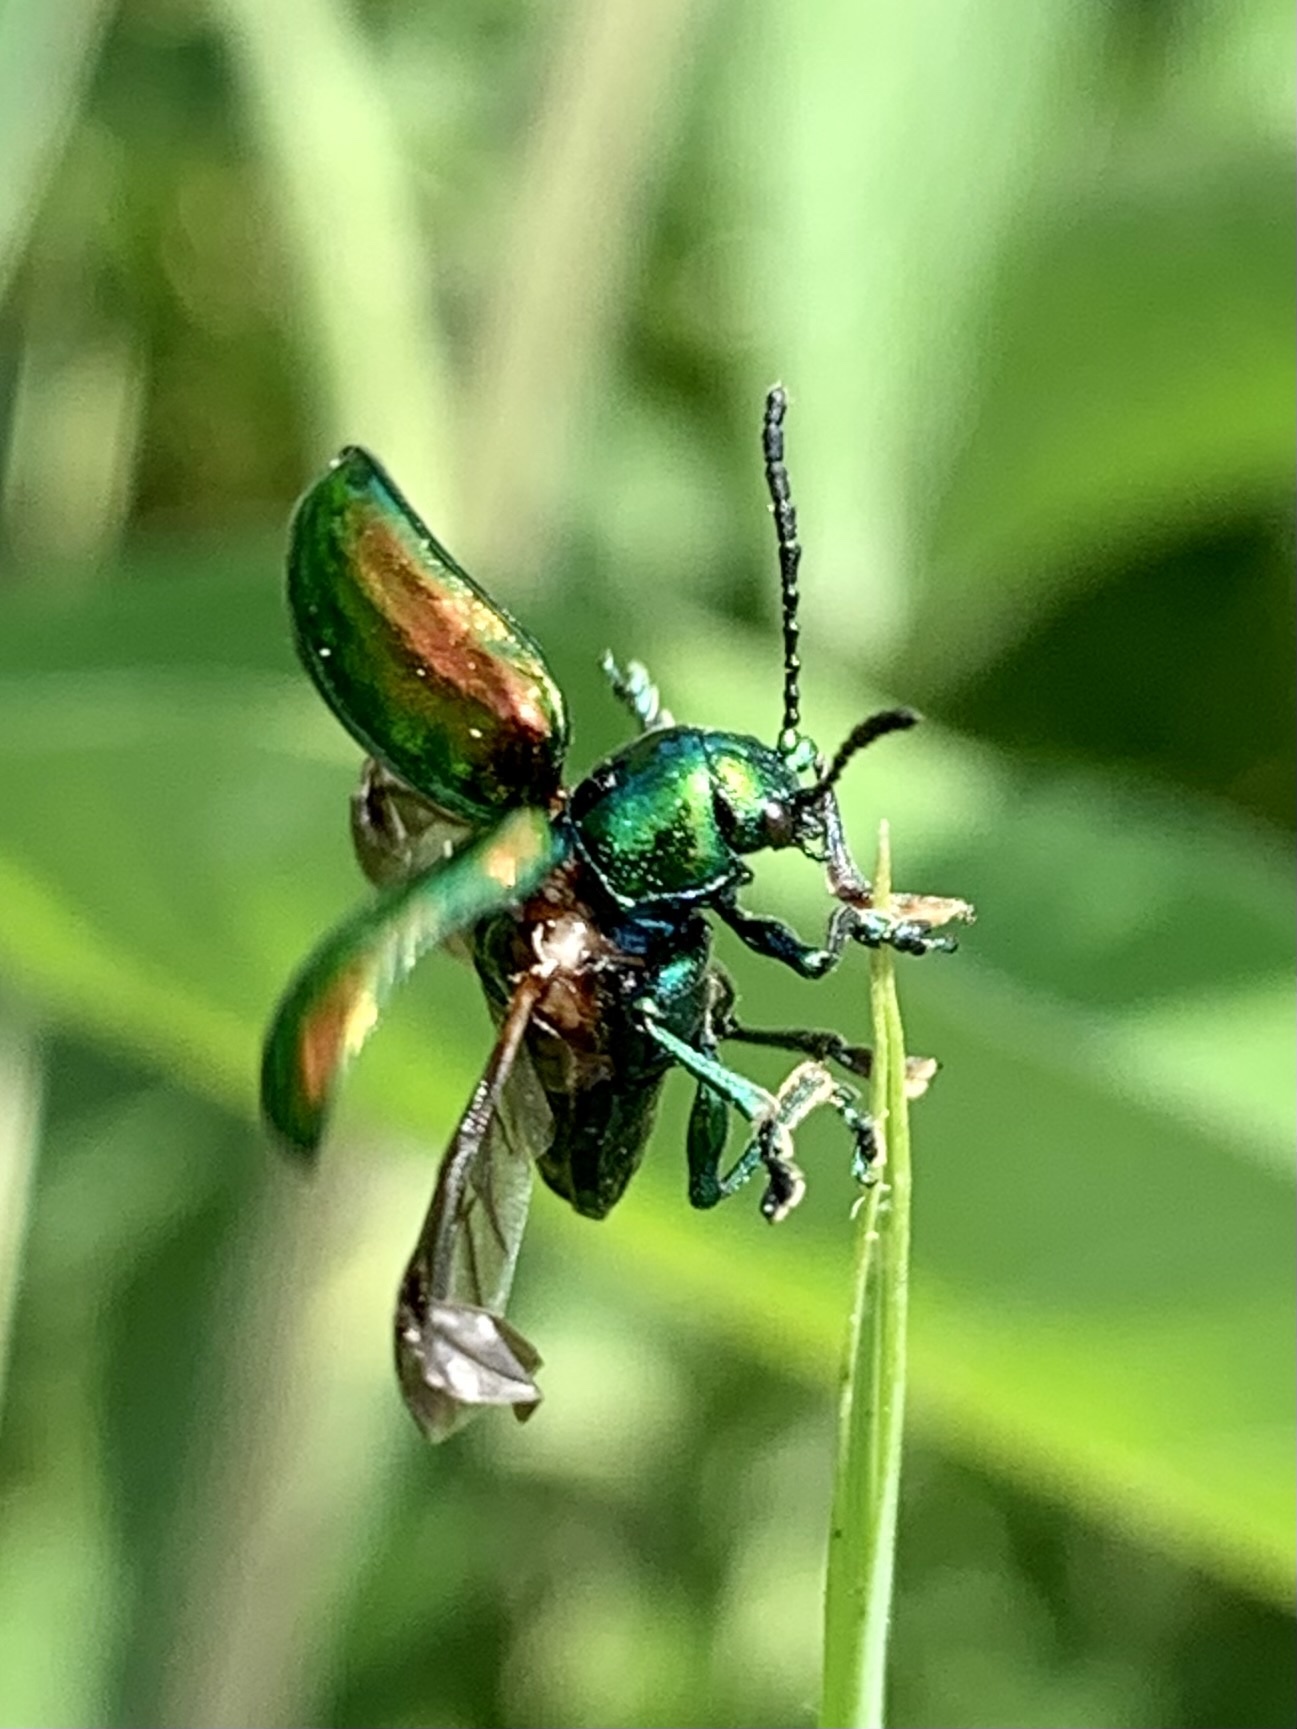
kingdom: Animalia
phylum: Arthropoda
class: Insecta
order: Coleoptera
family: Chrysomelidae
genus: Chrysochus
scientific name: Chrysochus auratus
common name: Dogbane leaf beetle
